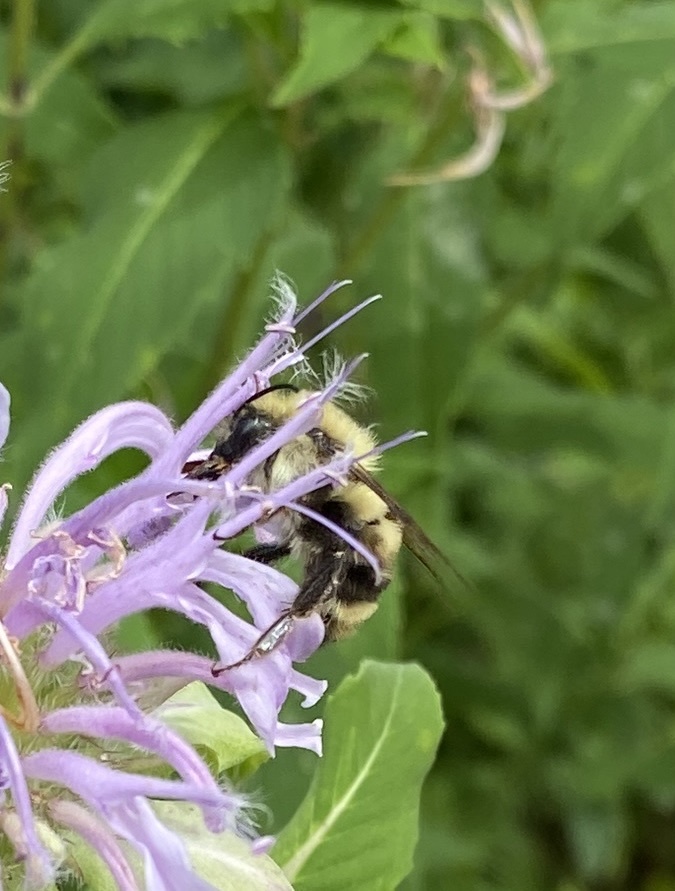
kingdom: Animalia
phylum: Arthropoda
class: Insecta
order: Hymenoptera
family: Apidae
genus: Bombus
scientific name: Bombus bimaculatus
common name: Two-spotted bumble bee
